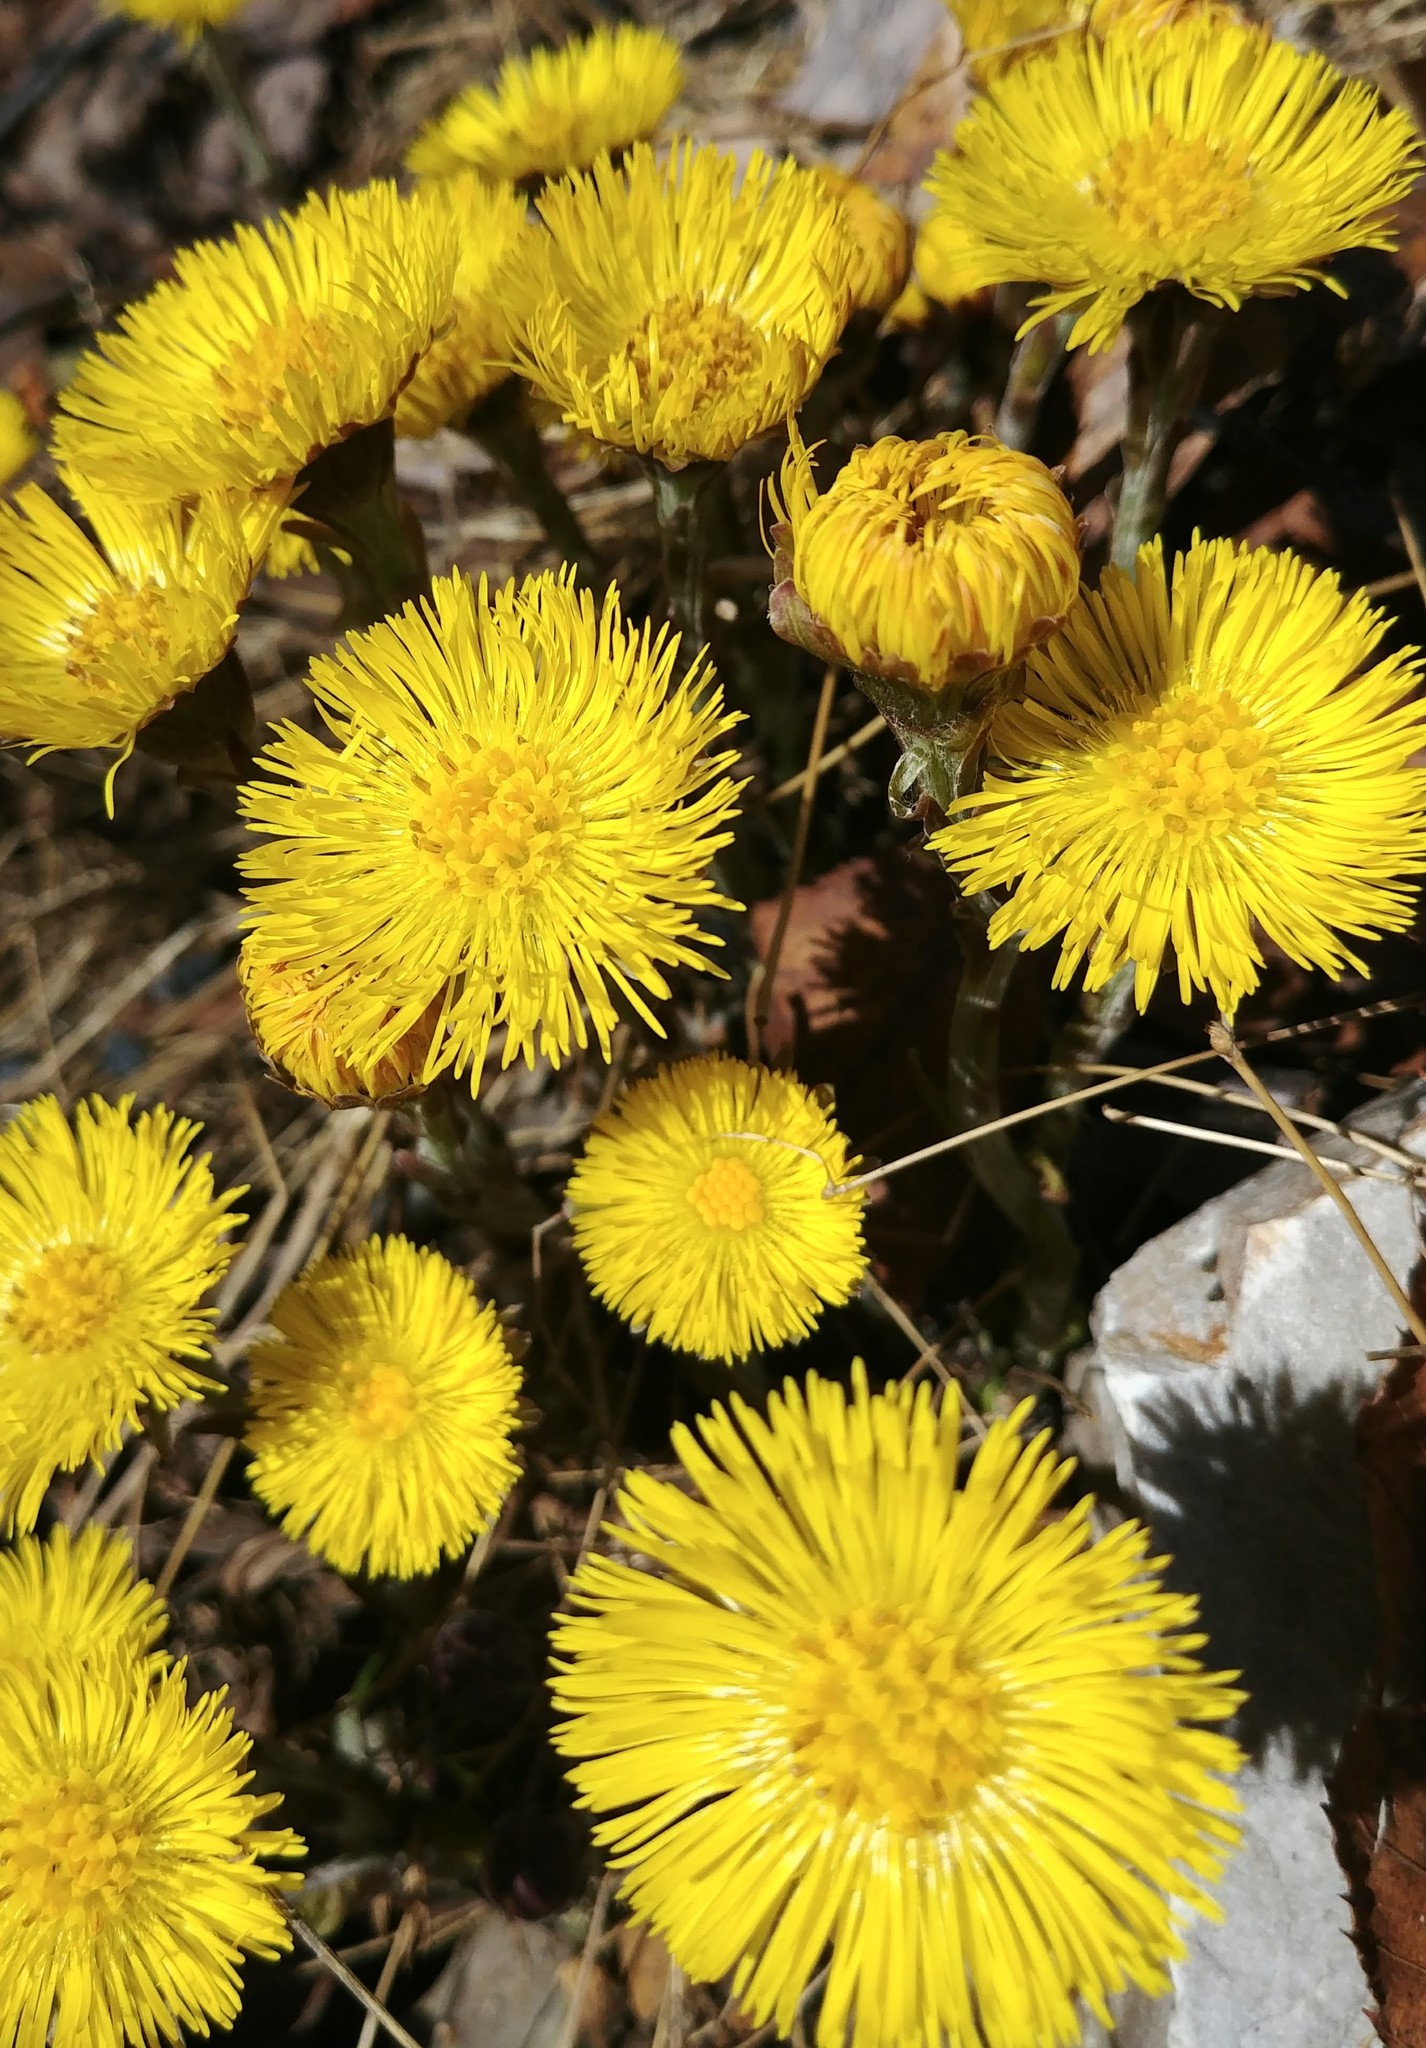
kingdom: Plantae
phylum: Tracheophyta
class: Magnoliopsida
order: Asterales
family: Asteraceae
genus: Tussilago
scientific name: Tussilago farfara
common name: Coltsfoot
